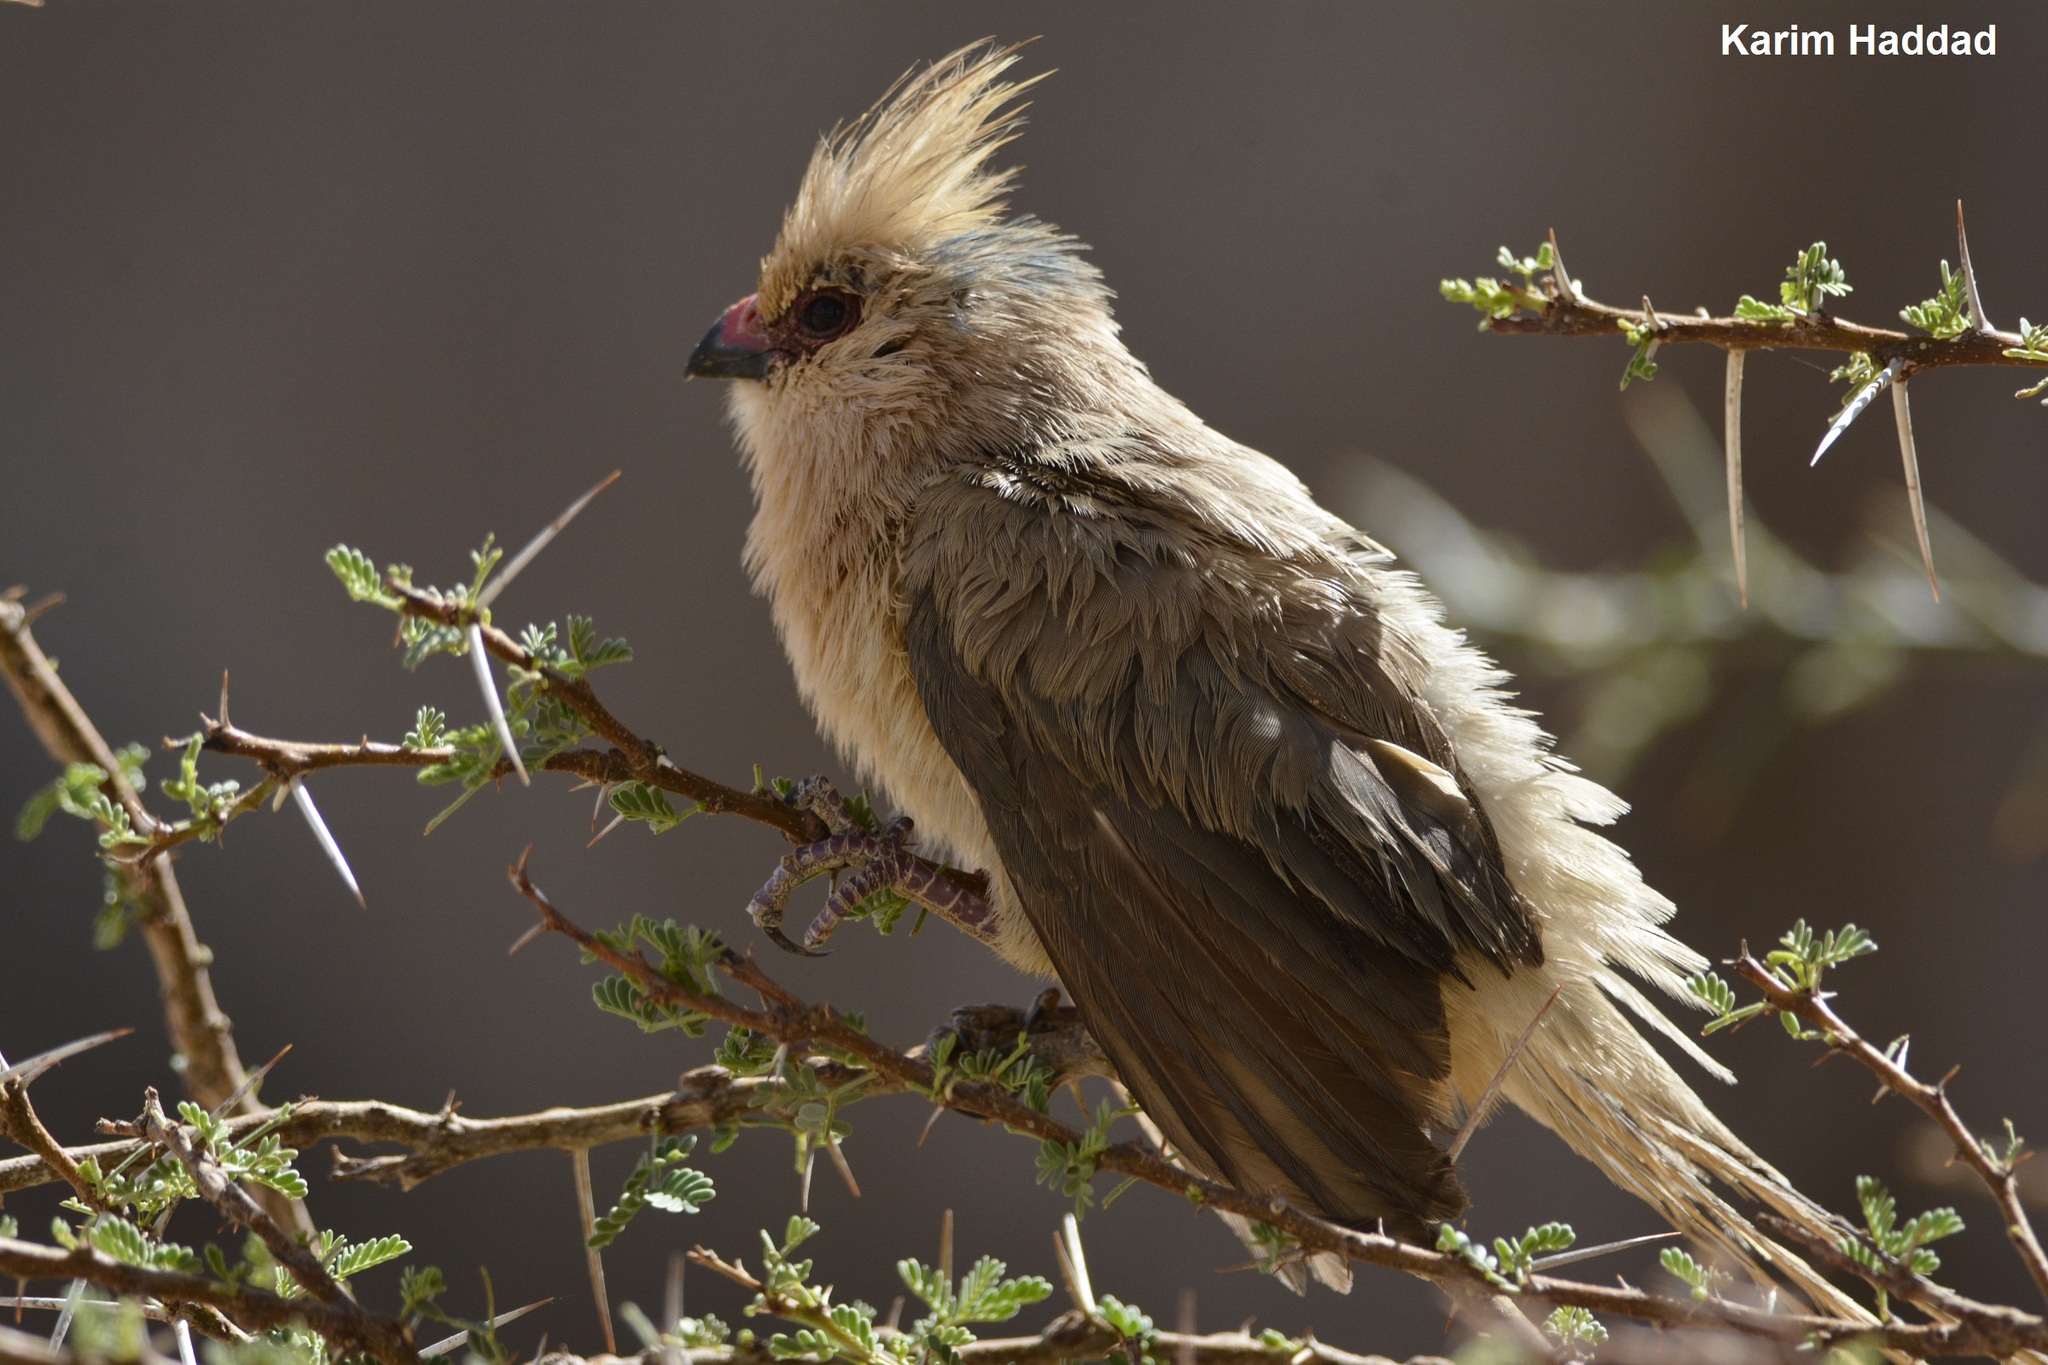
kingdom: Animalia
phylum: Chordata
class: Aves
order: Coliiformes
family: Coliidae
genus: Urocolius
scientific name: Urocolius macrourus
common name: Blue-naped mousebird
